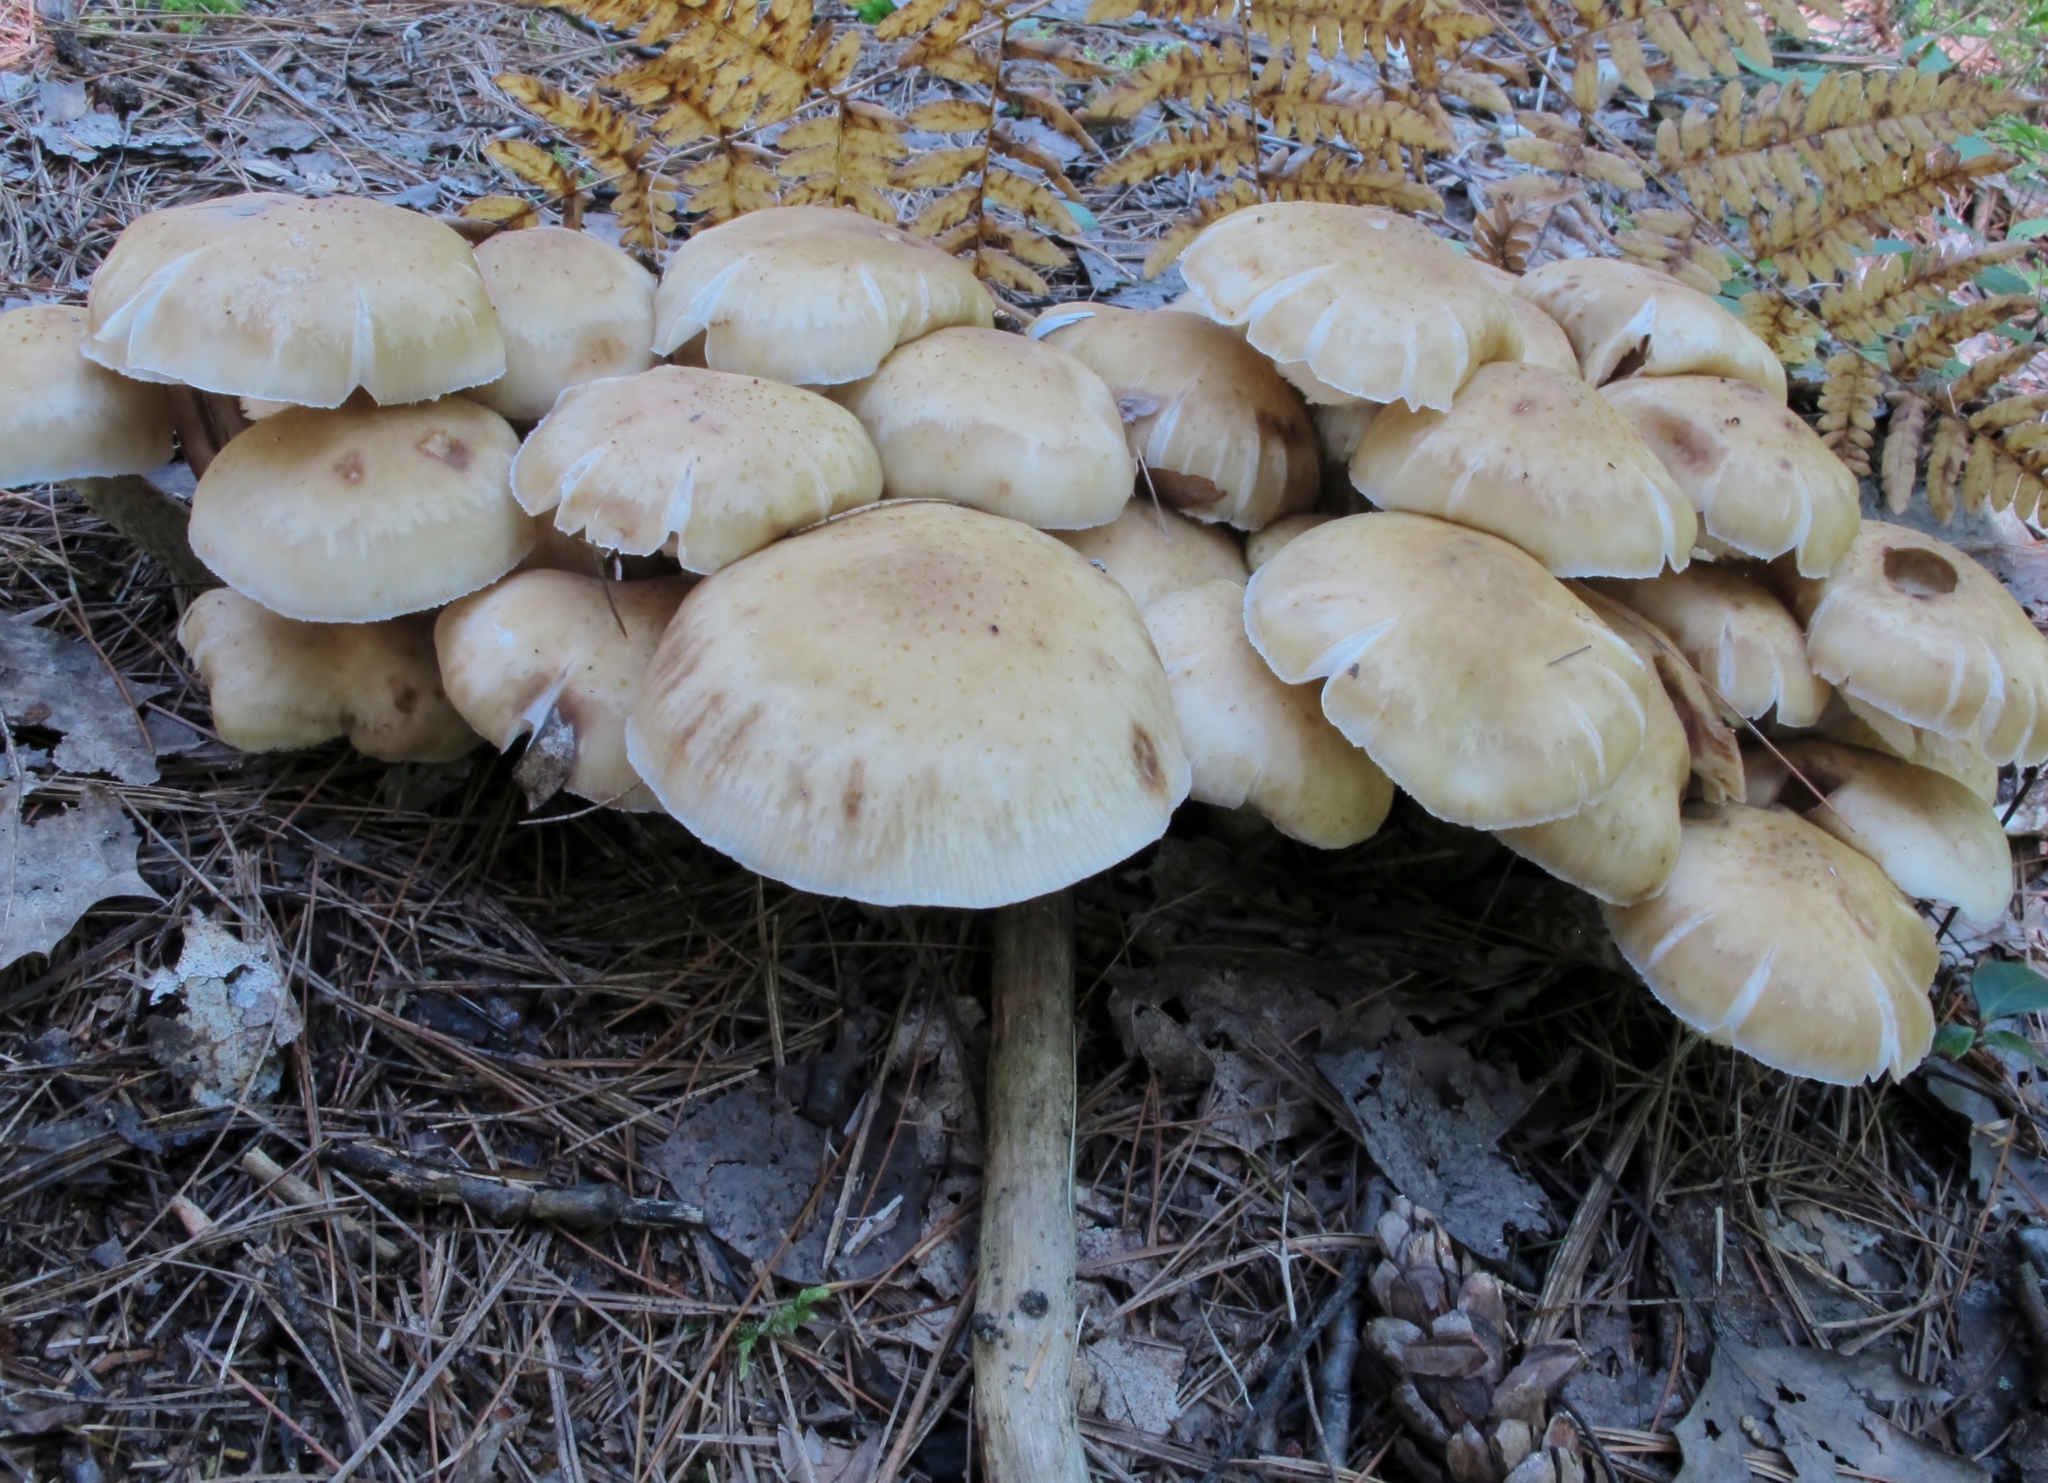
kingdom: Fungi
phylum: Basidiomycota
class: Agaricomycetes
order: Agaricales
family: Physalacriaceae
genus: Armillaria
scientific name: Armillaria mellea
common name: Honey fungus
